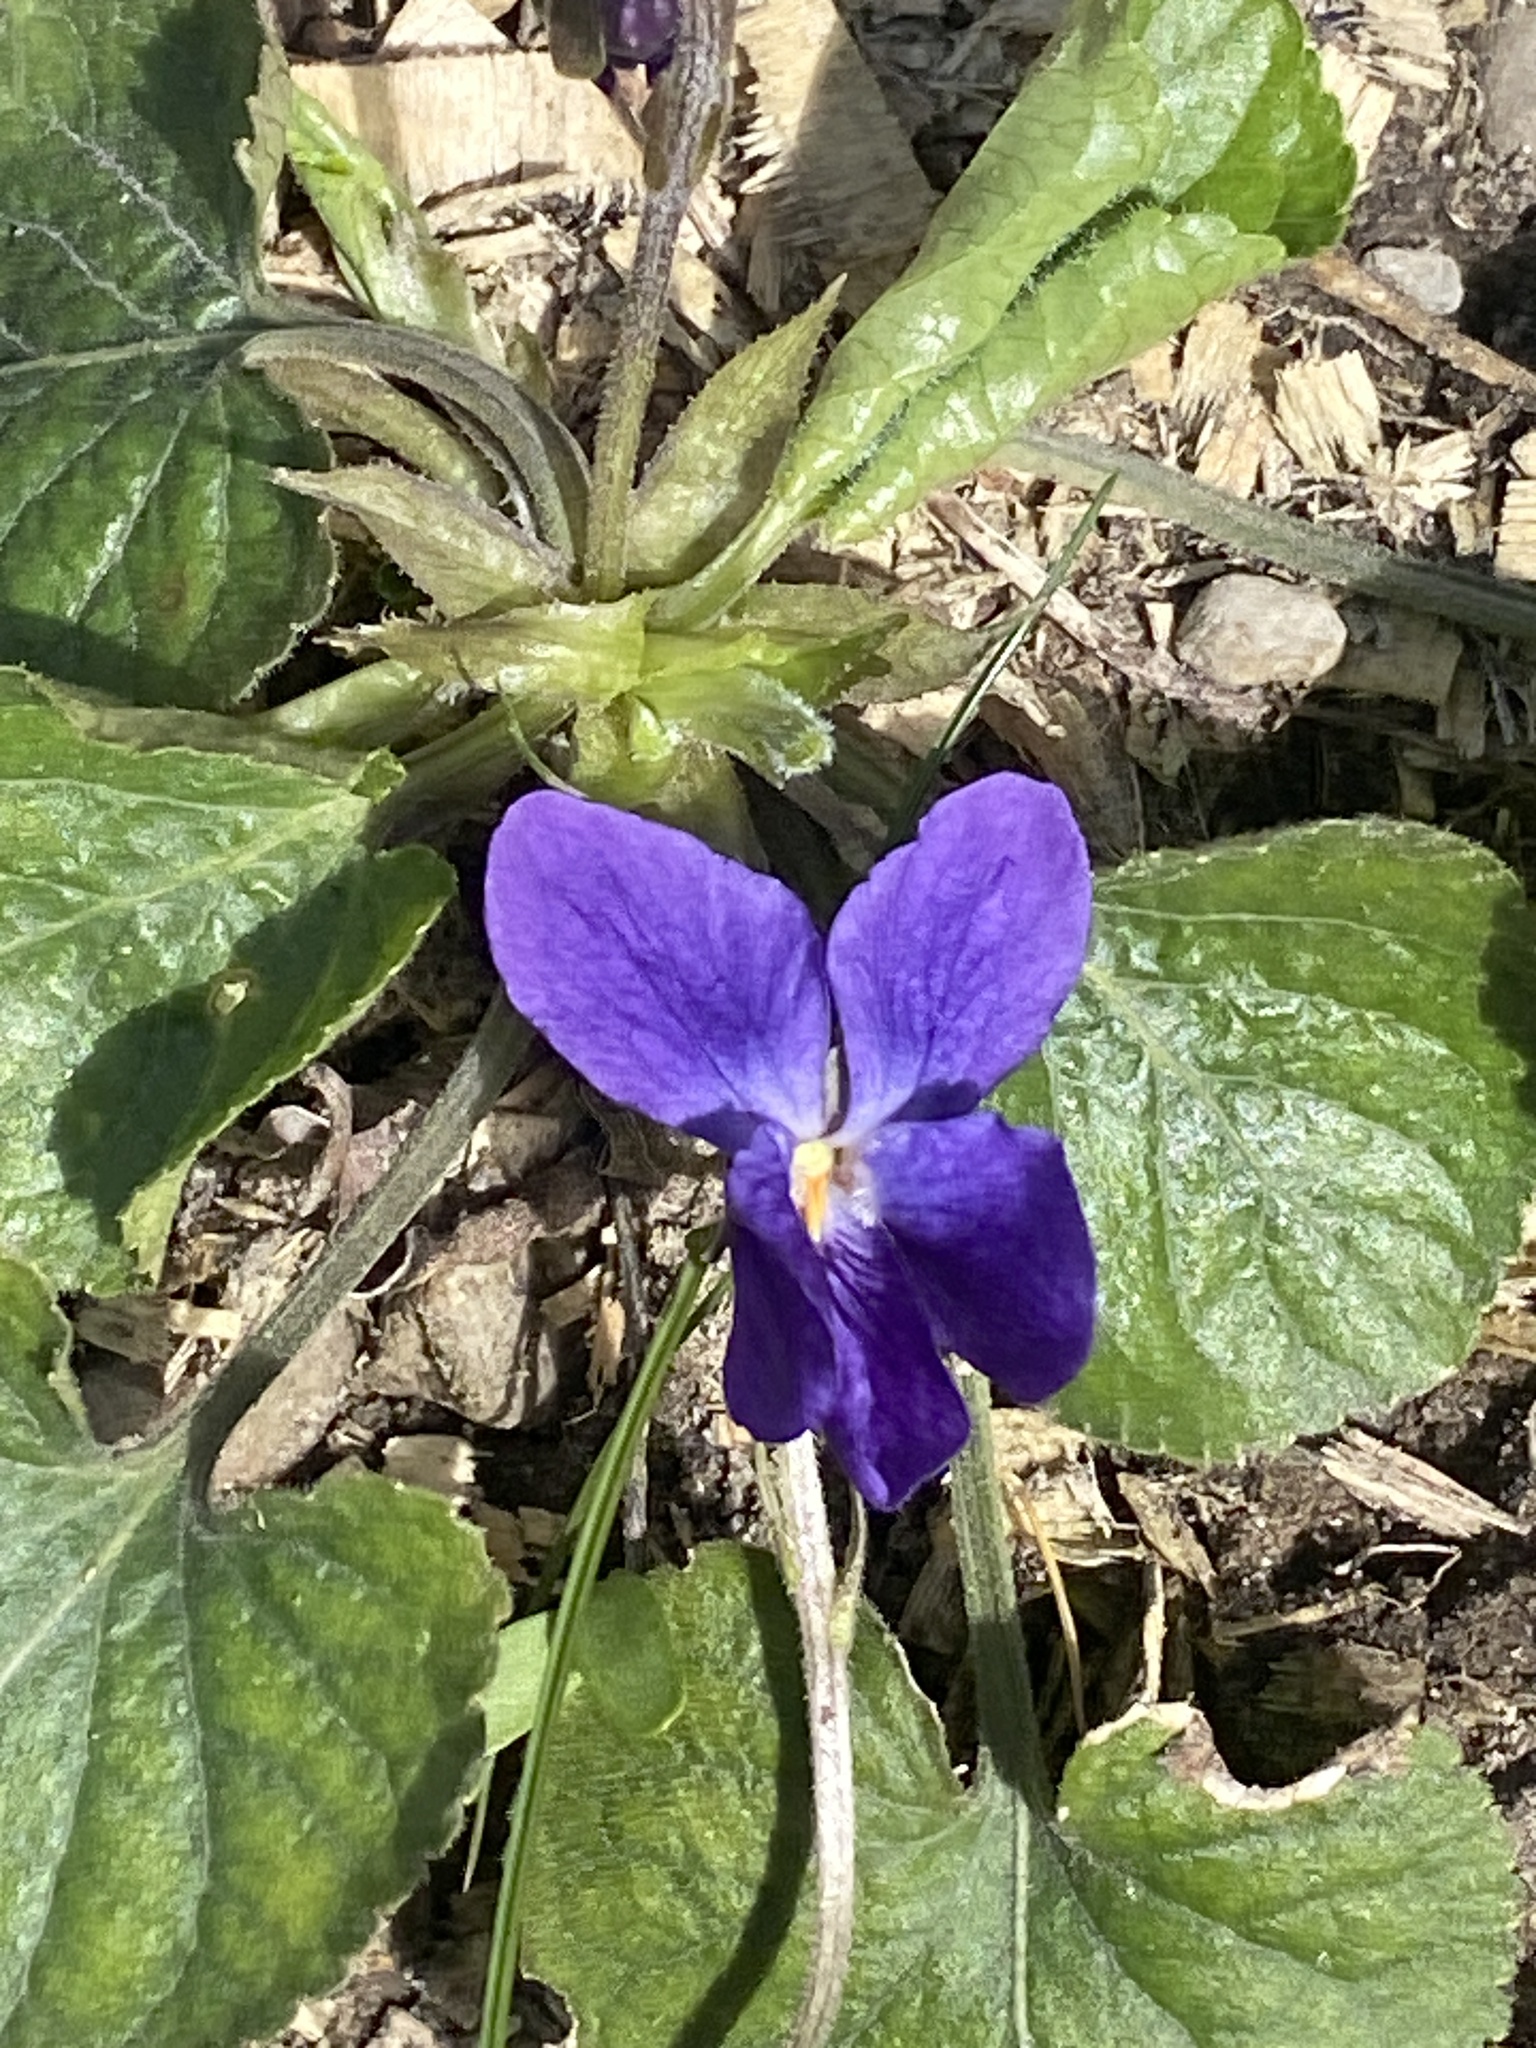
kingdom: Plantae
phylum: Tracheophyta
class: Magnoliopsida
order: Malpighiales
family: Violaceae
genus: Viola
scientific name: Viola odorata
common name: Sweet violet
